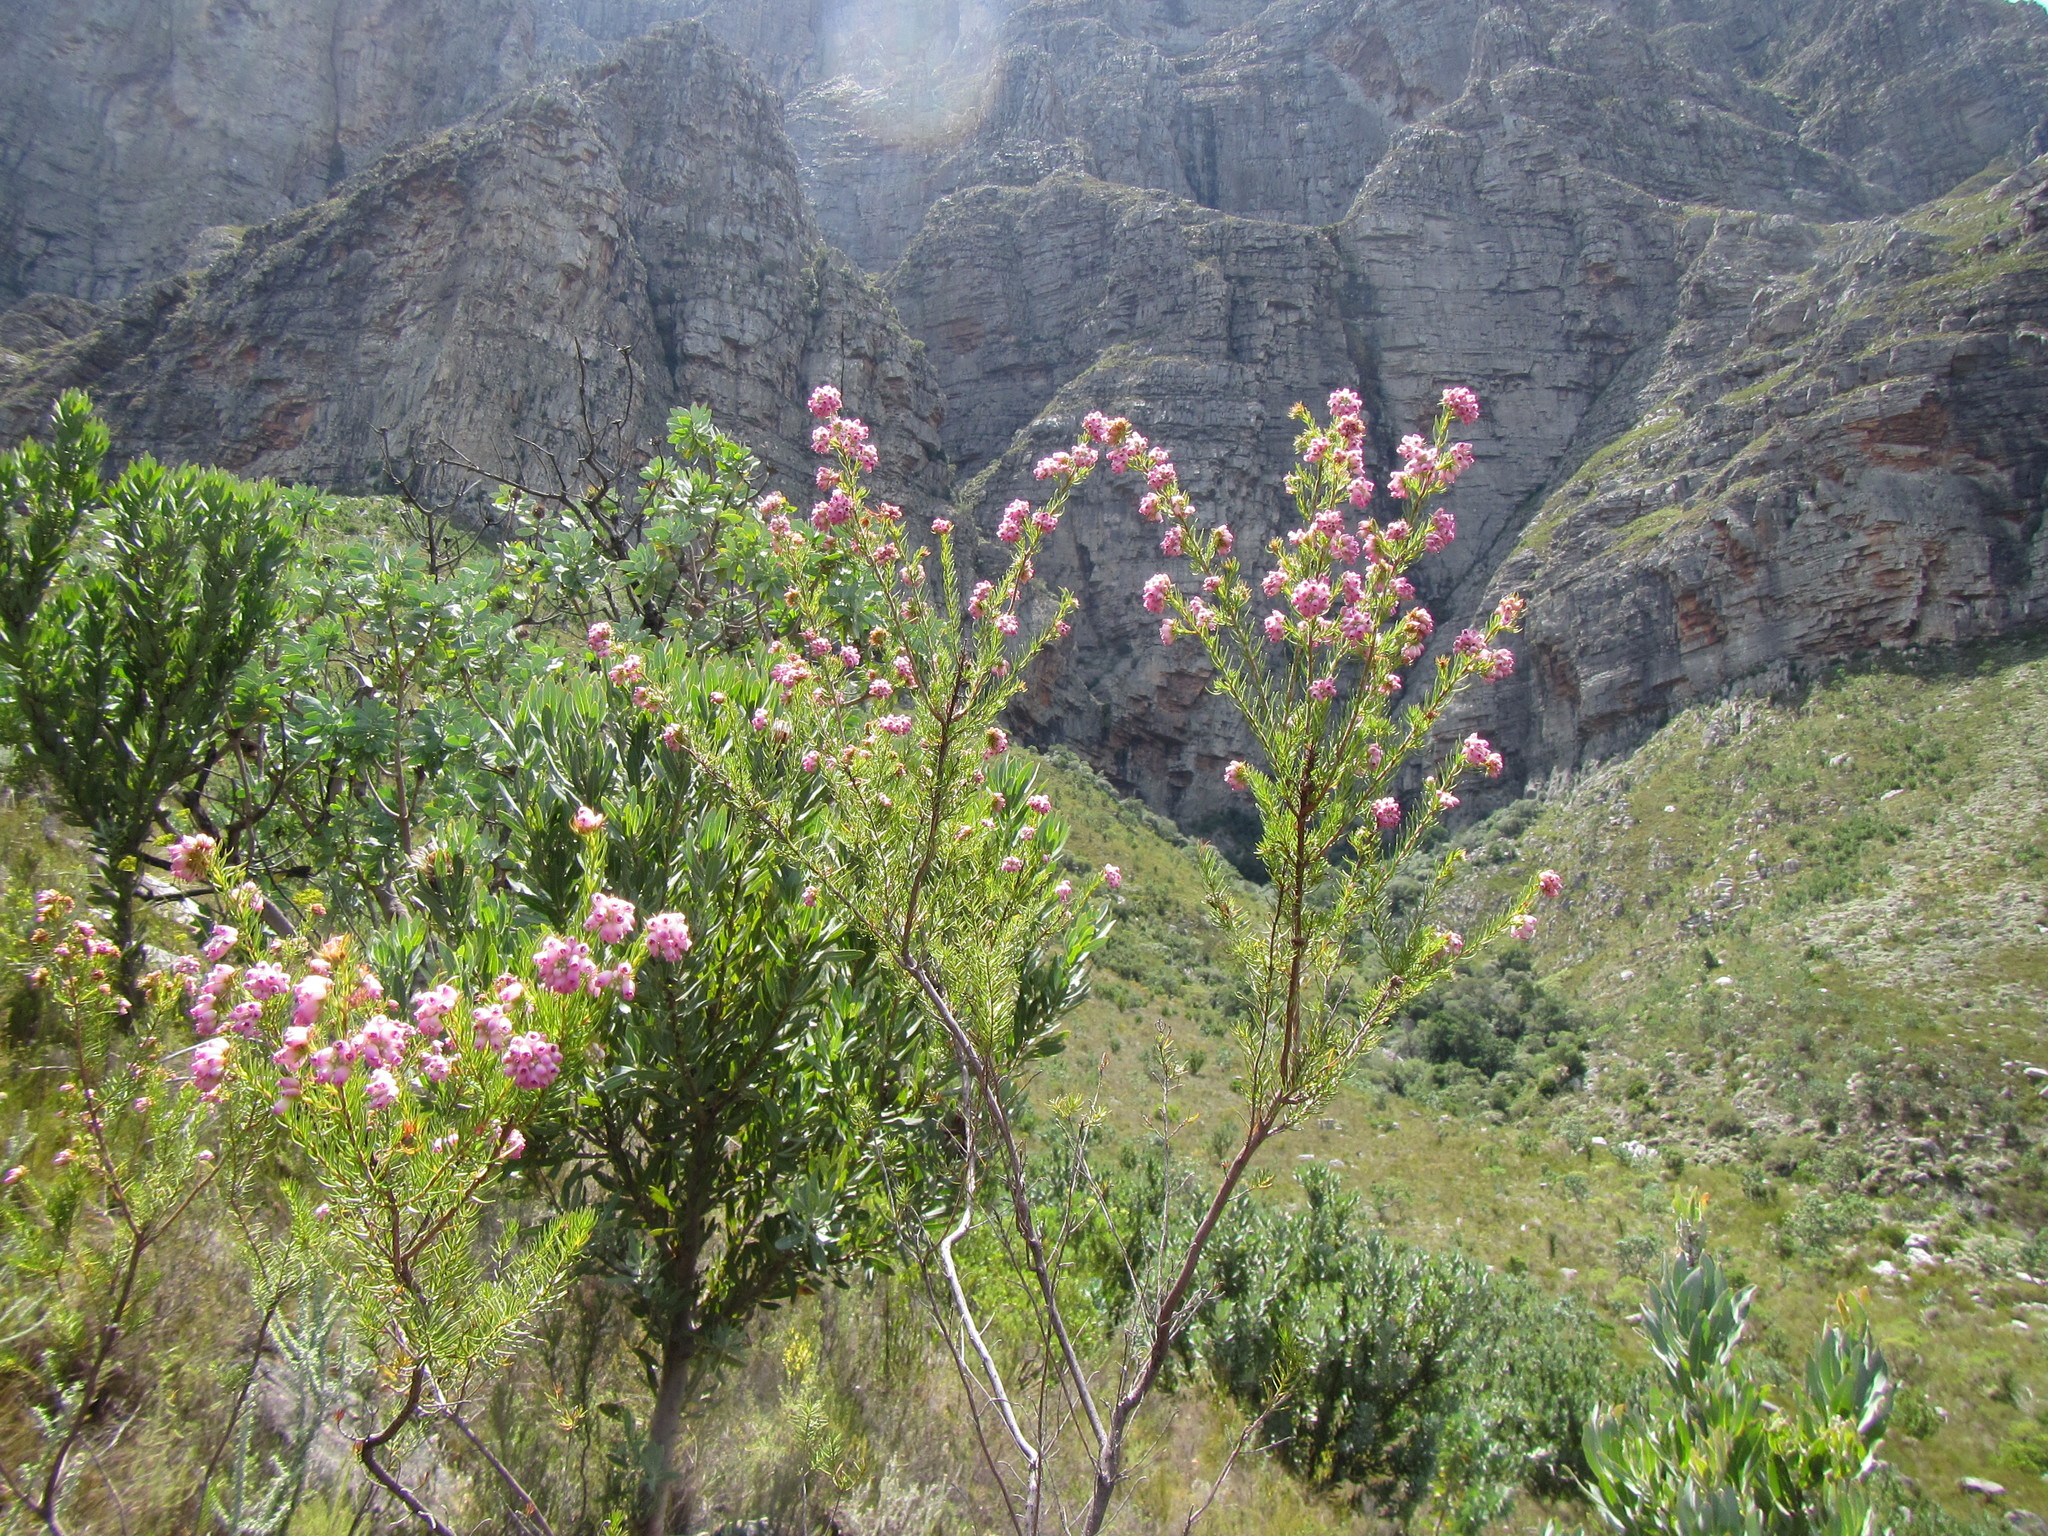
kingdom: Plantae
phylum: Tracheophyta
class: Magnoliopsida
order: Ericales
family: Ericaceae
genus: Erica
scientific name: Erica subulata
